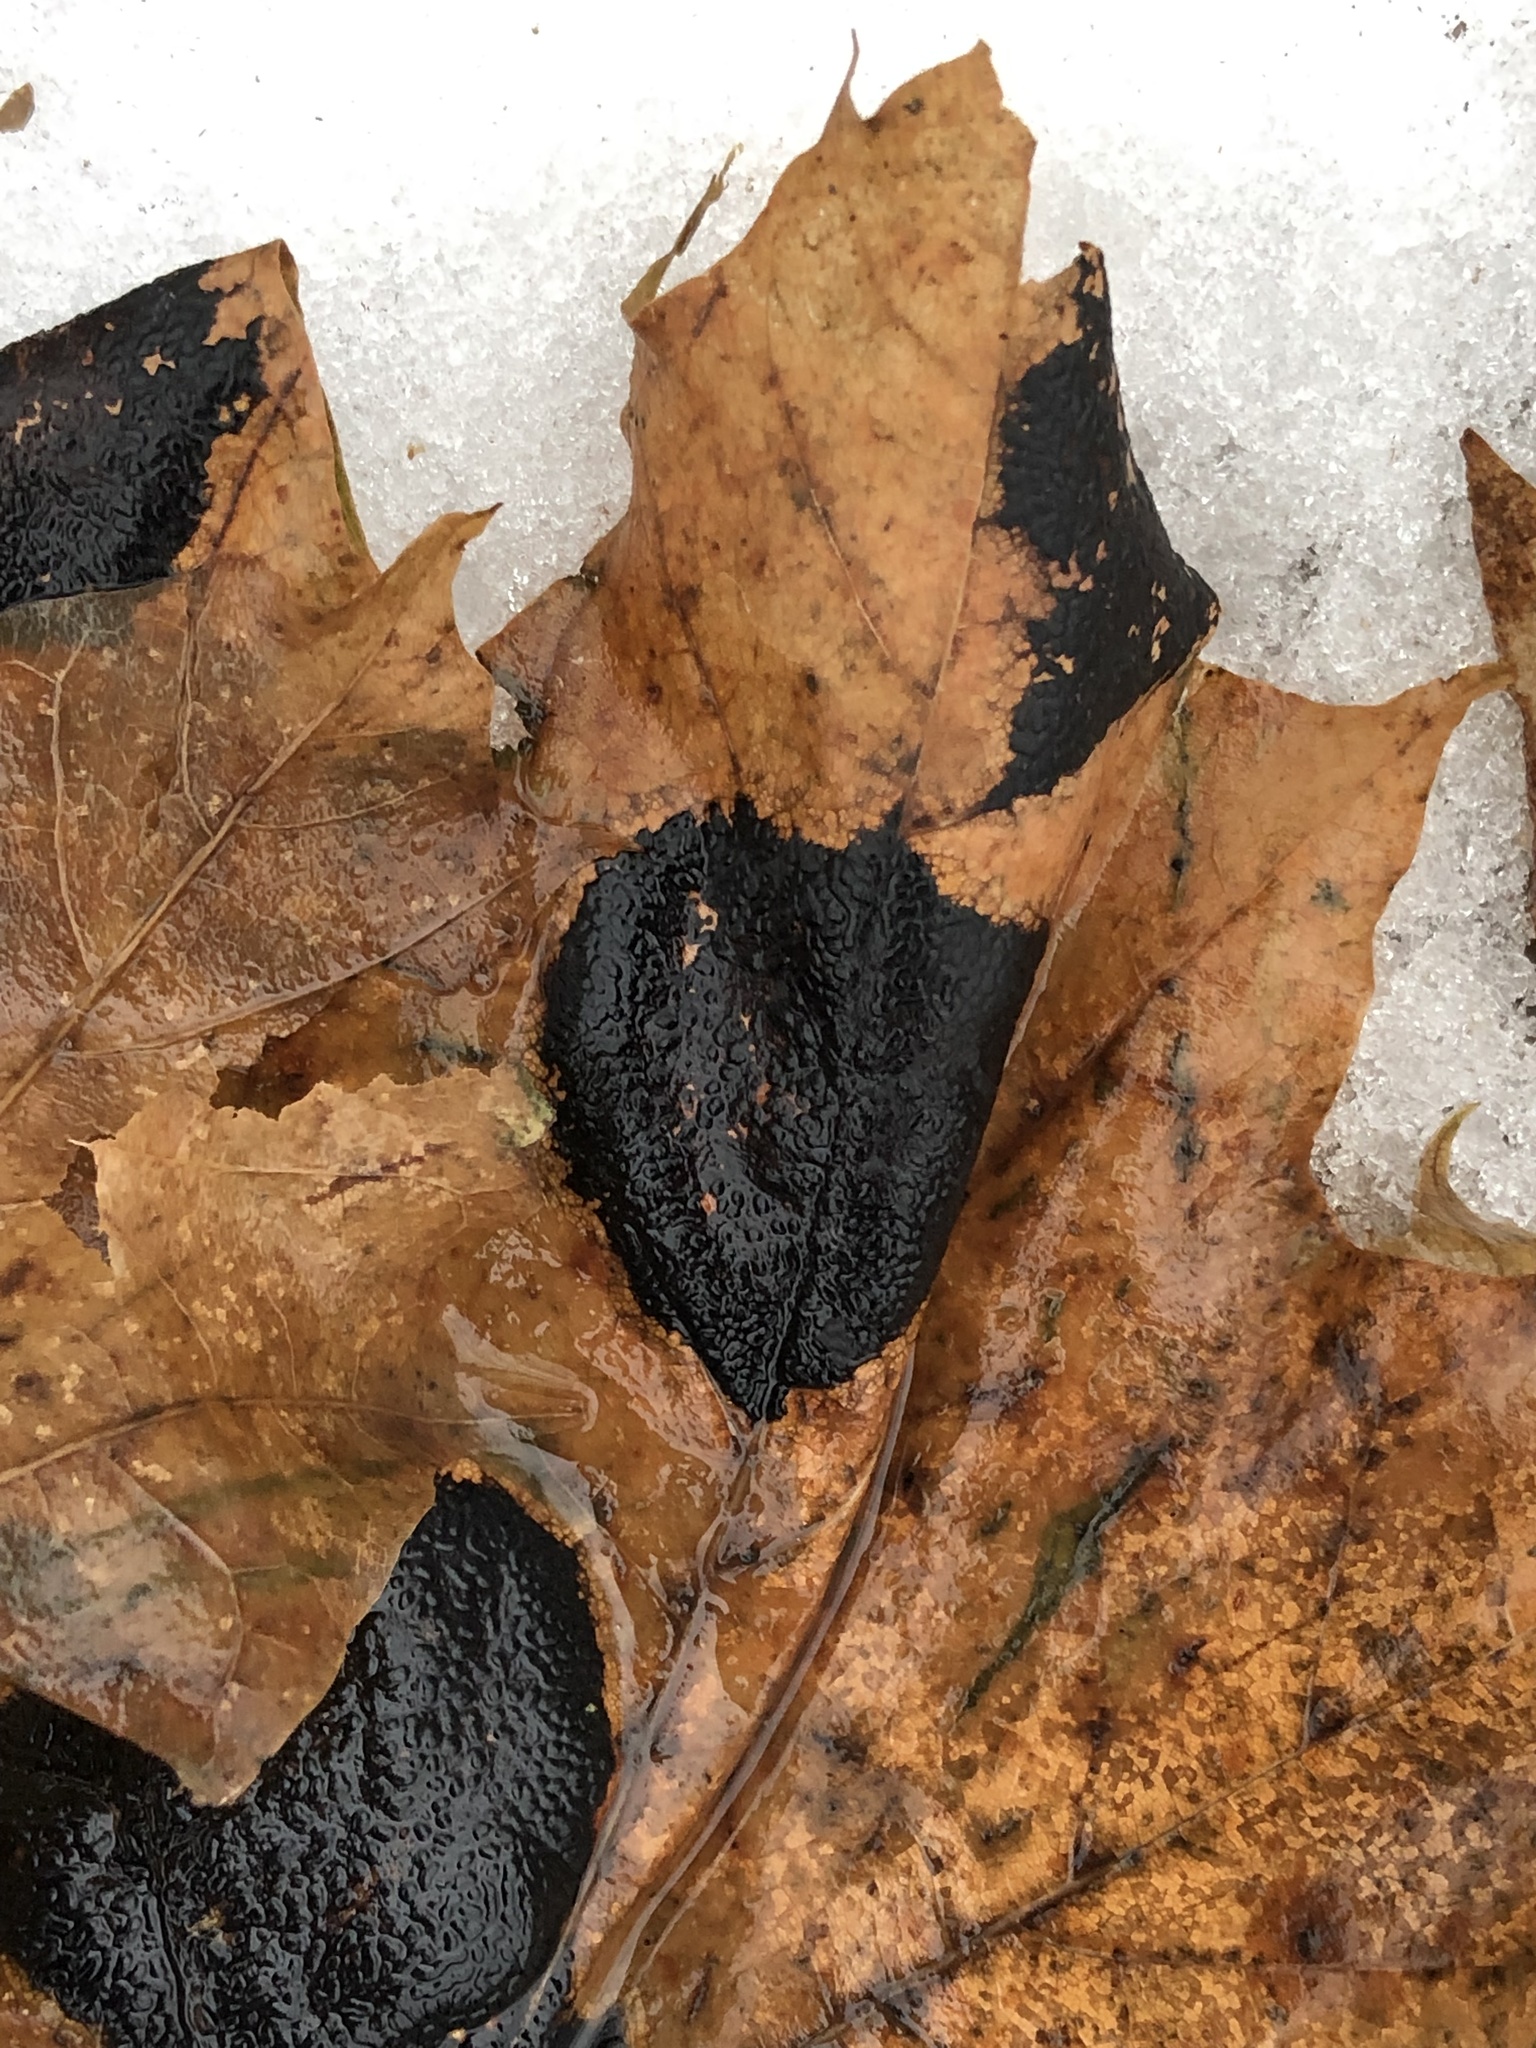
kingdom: Fungi
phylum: Ascomycota
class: Leotiomycetes
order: Rhytismatales
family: Rhytismataceae
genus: Rhytisma
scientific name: Rhytisma acerinum
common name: European tar spot
